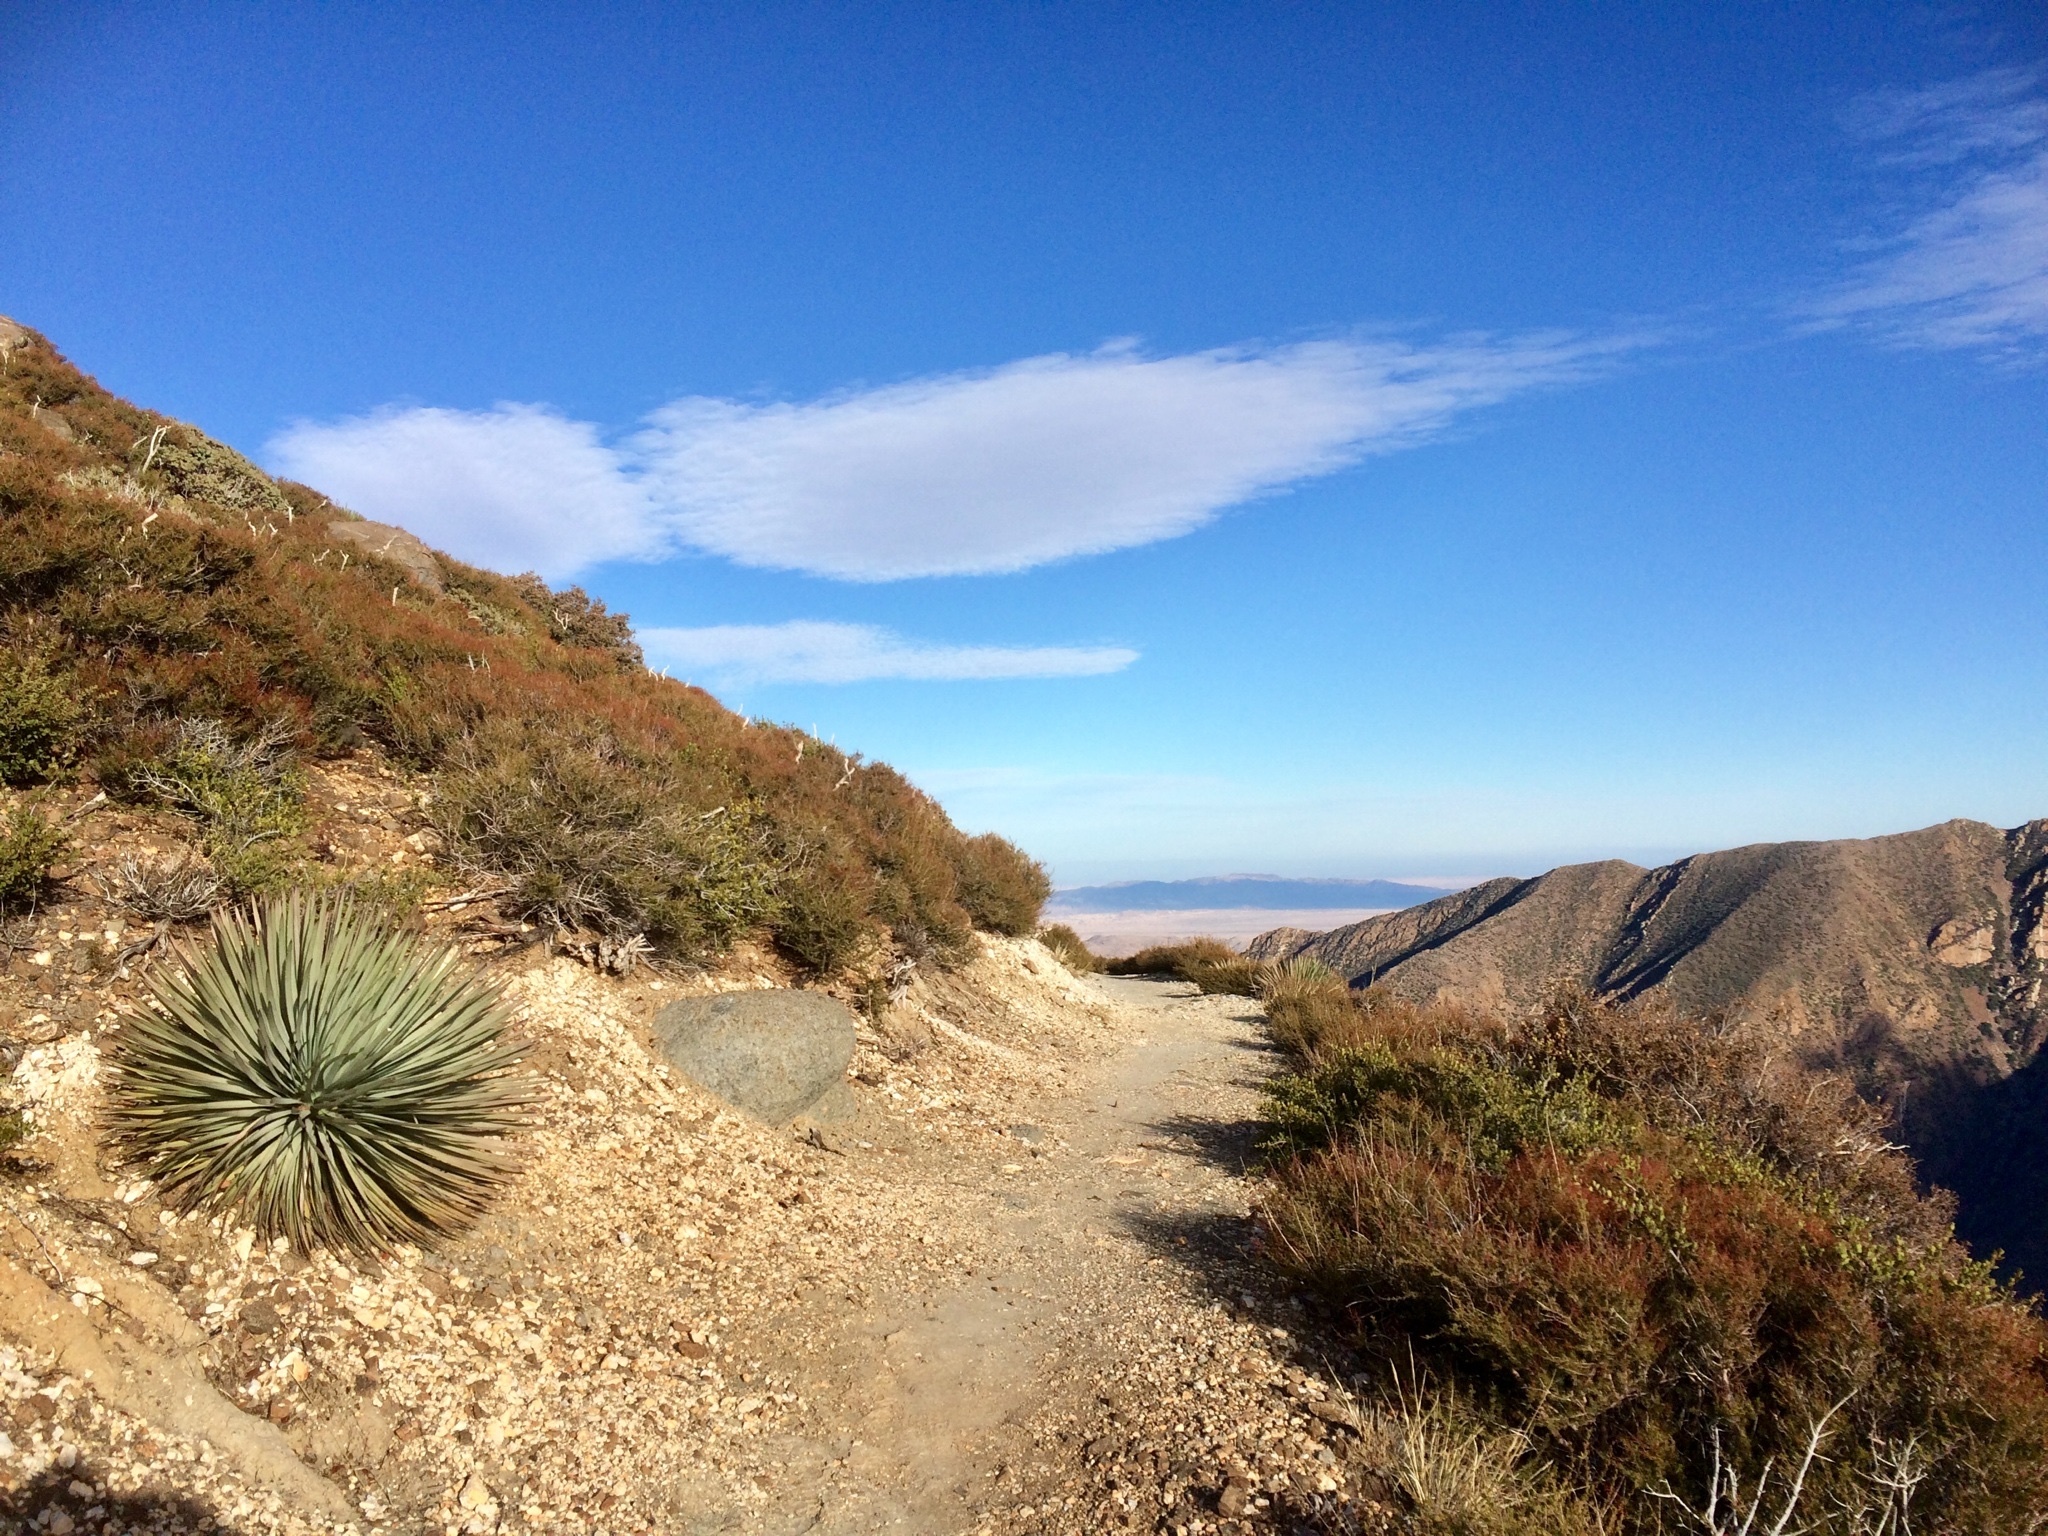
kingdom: Plantae
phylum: Tracheophyta
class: Liliopsida
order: Asparagales
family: Asparagaceae
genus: Hesperoyucca
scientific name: Hesperoyucca whipplei
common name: Our lord's-candle
